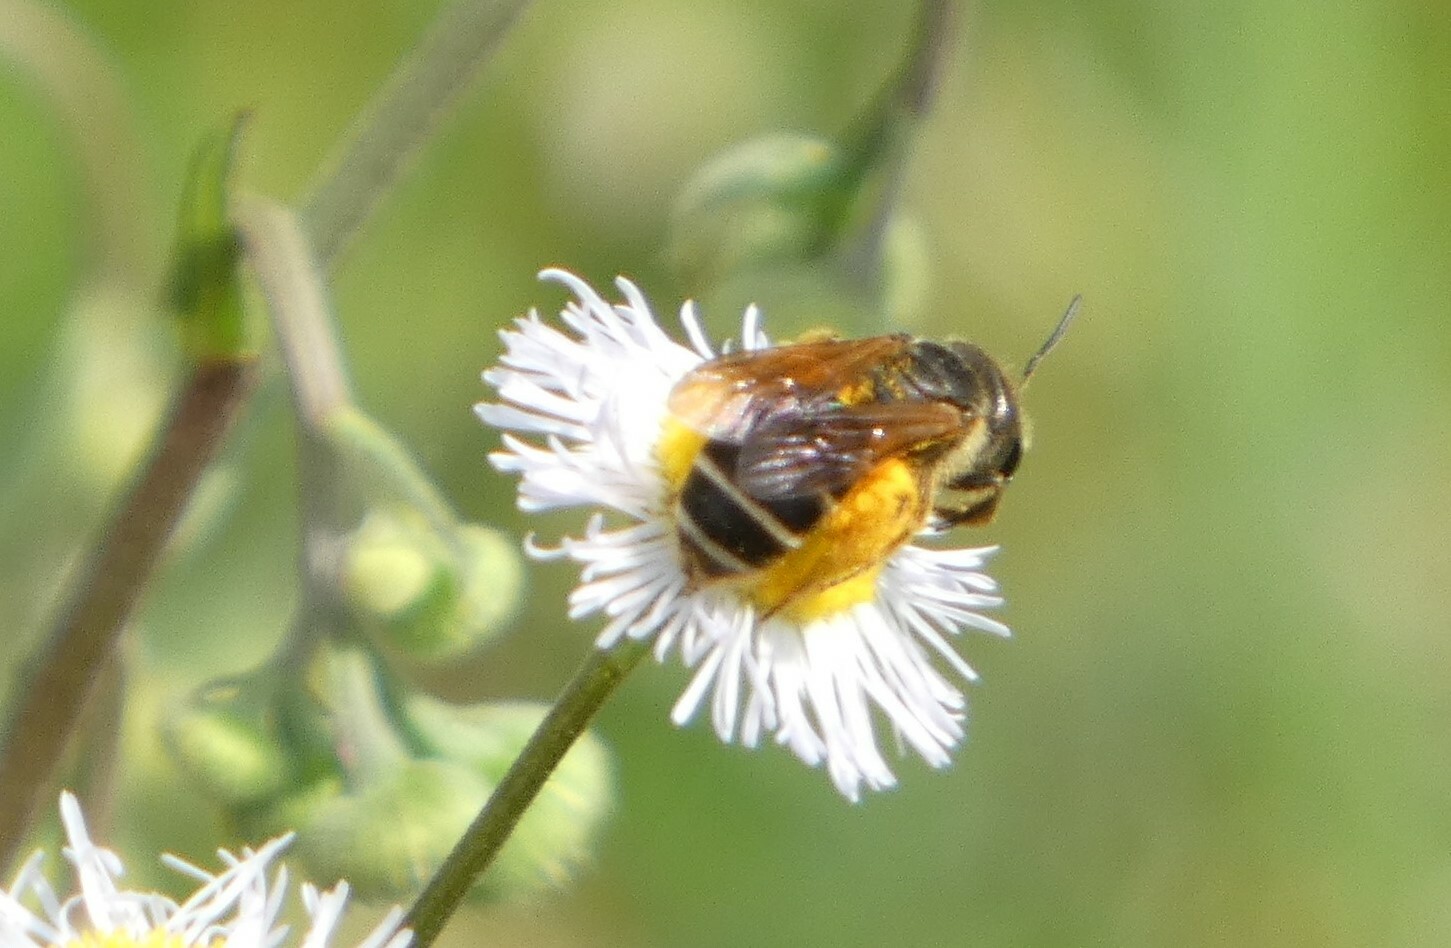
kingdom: Animalia
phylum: Arthropoda
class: Insecta
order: Hymenoptera
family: Halictidae
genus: Halictus
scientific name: Halictus poeyi
